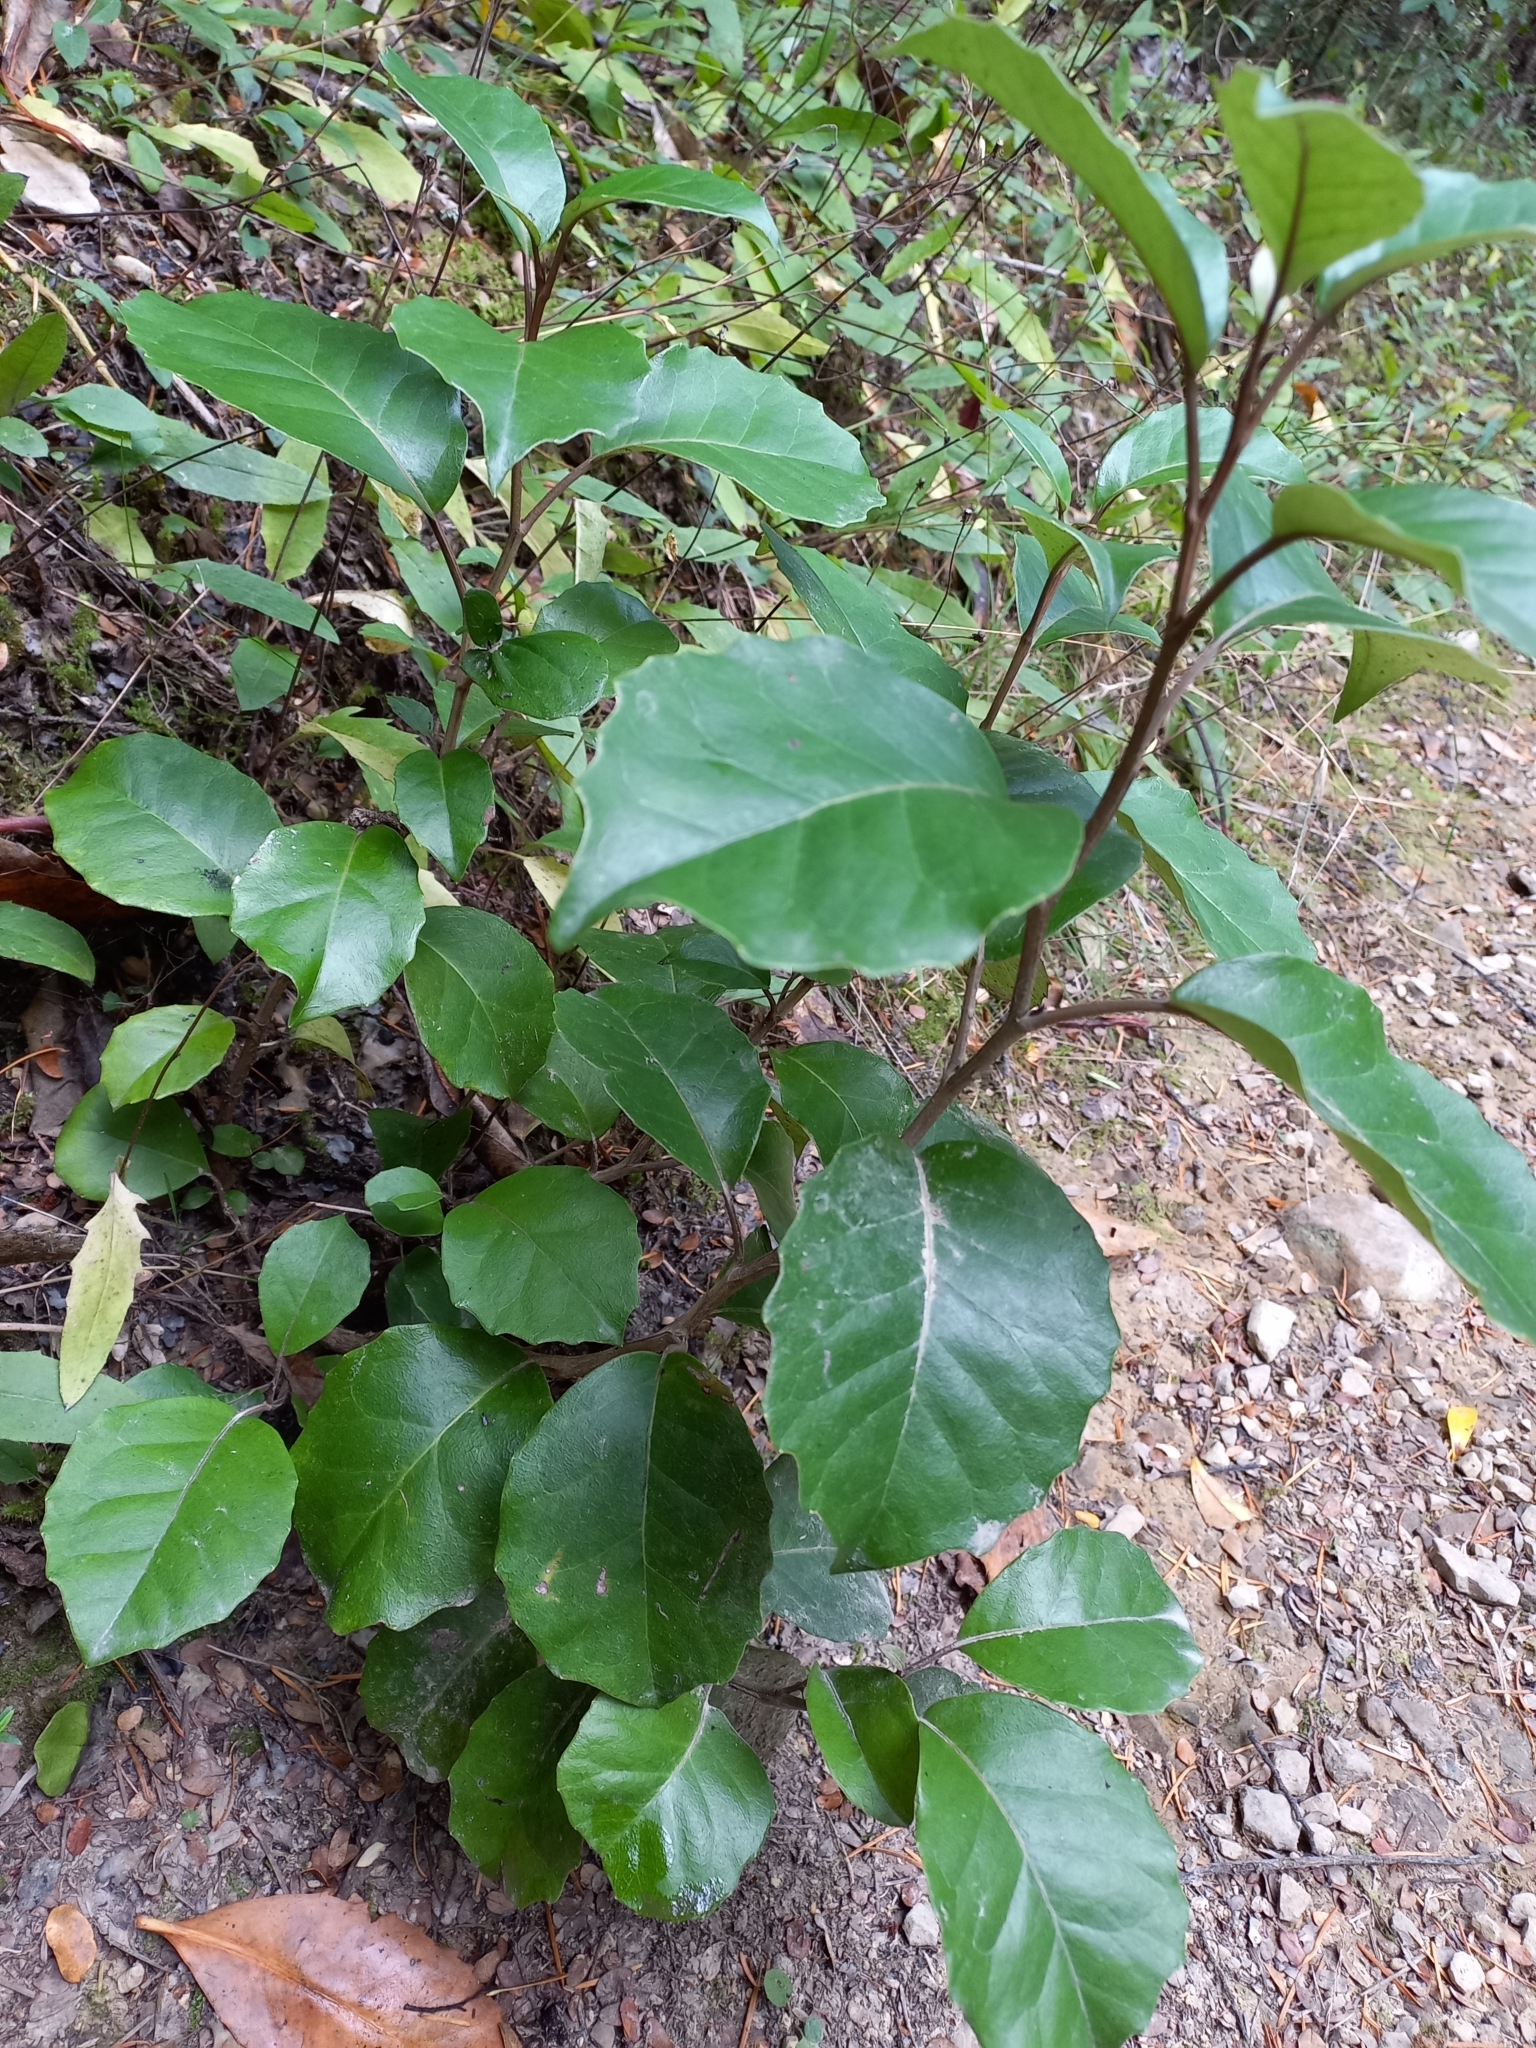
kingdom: Plantae
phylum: Tracheophyta
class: Magnoliopsida
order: Asterales
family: Asteraceae
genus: Olearia
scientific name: Olearia arborescens
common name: Glossy tree daisy
